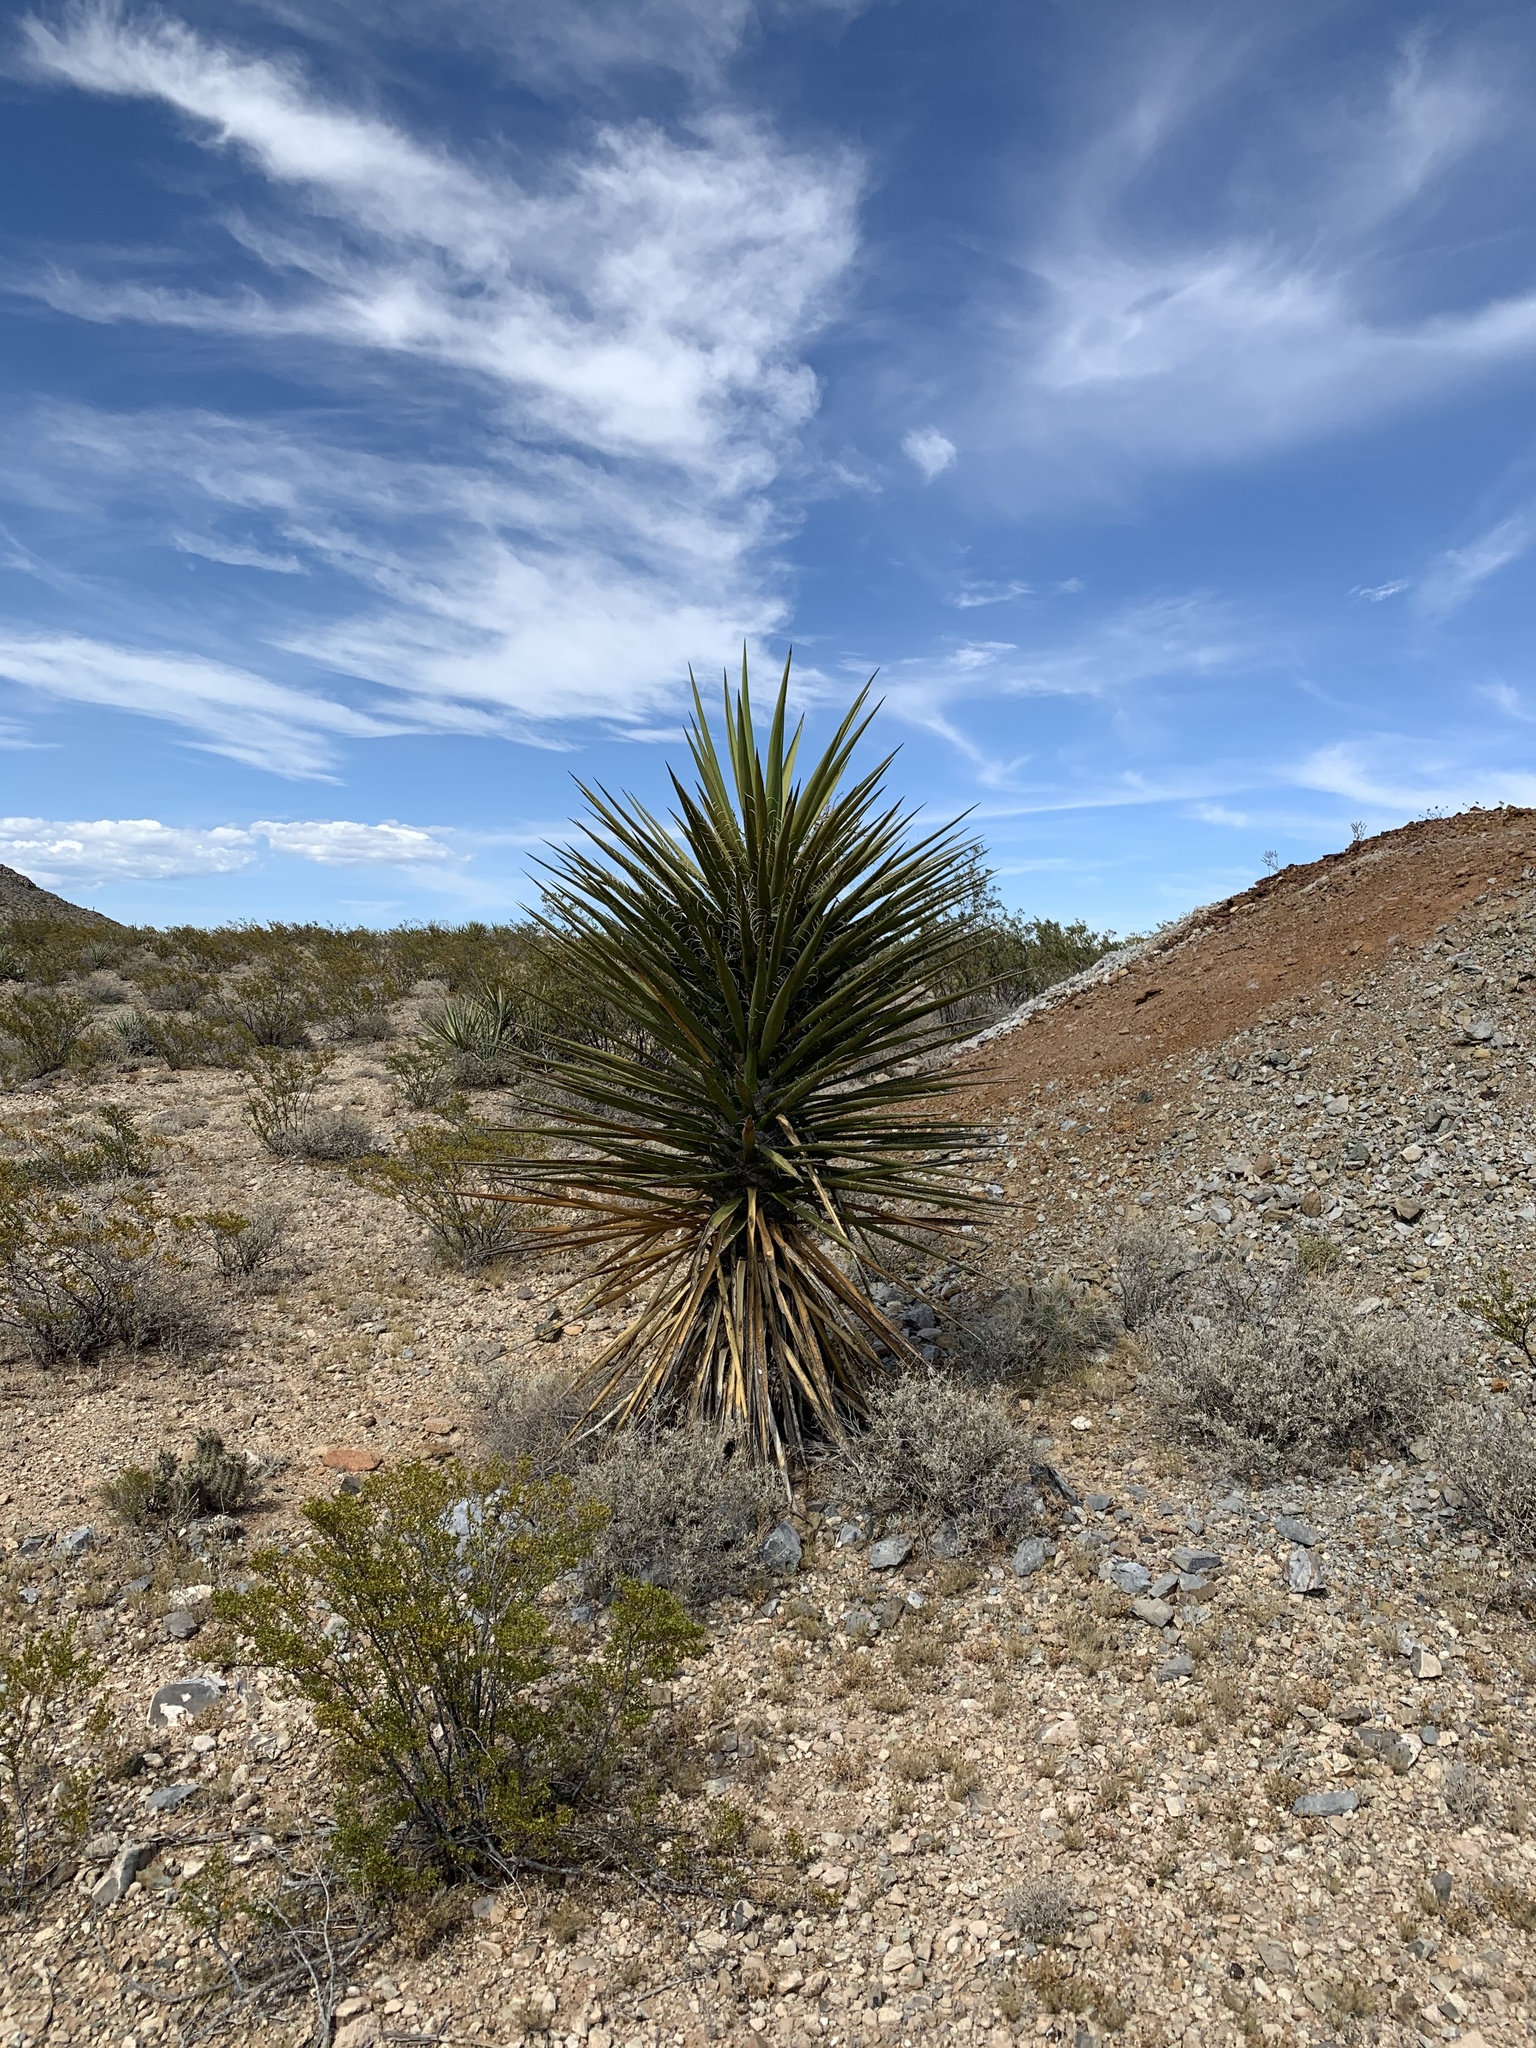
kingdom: Plantae
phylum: Tracheophyta
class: Liliopsida
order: Asparagales
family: Asparagaceae
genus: Yucca
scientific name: Yucca treculiana
